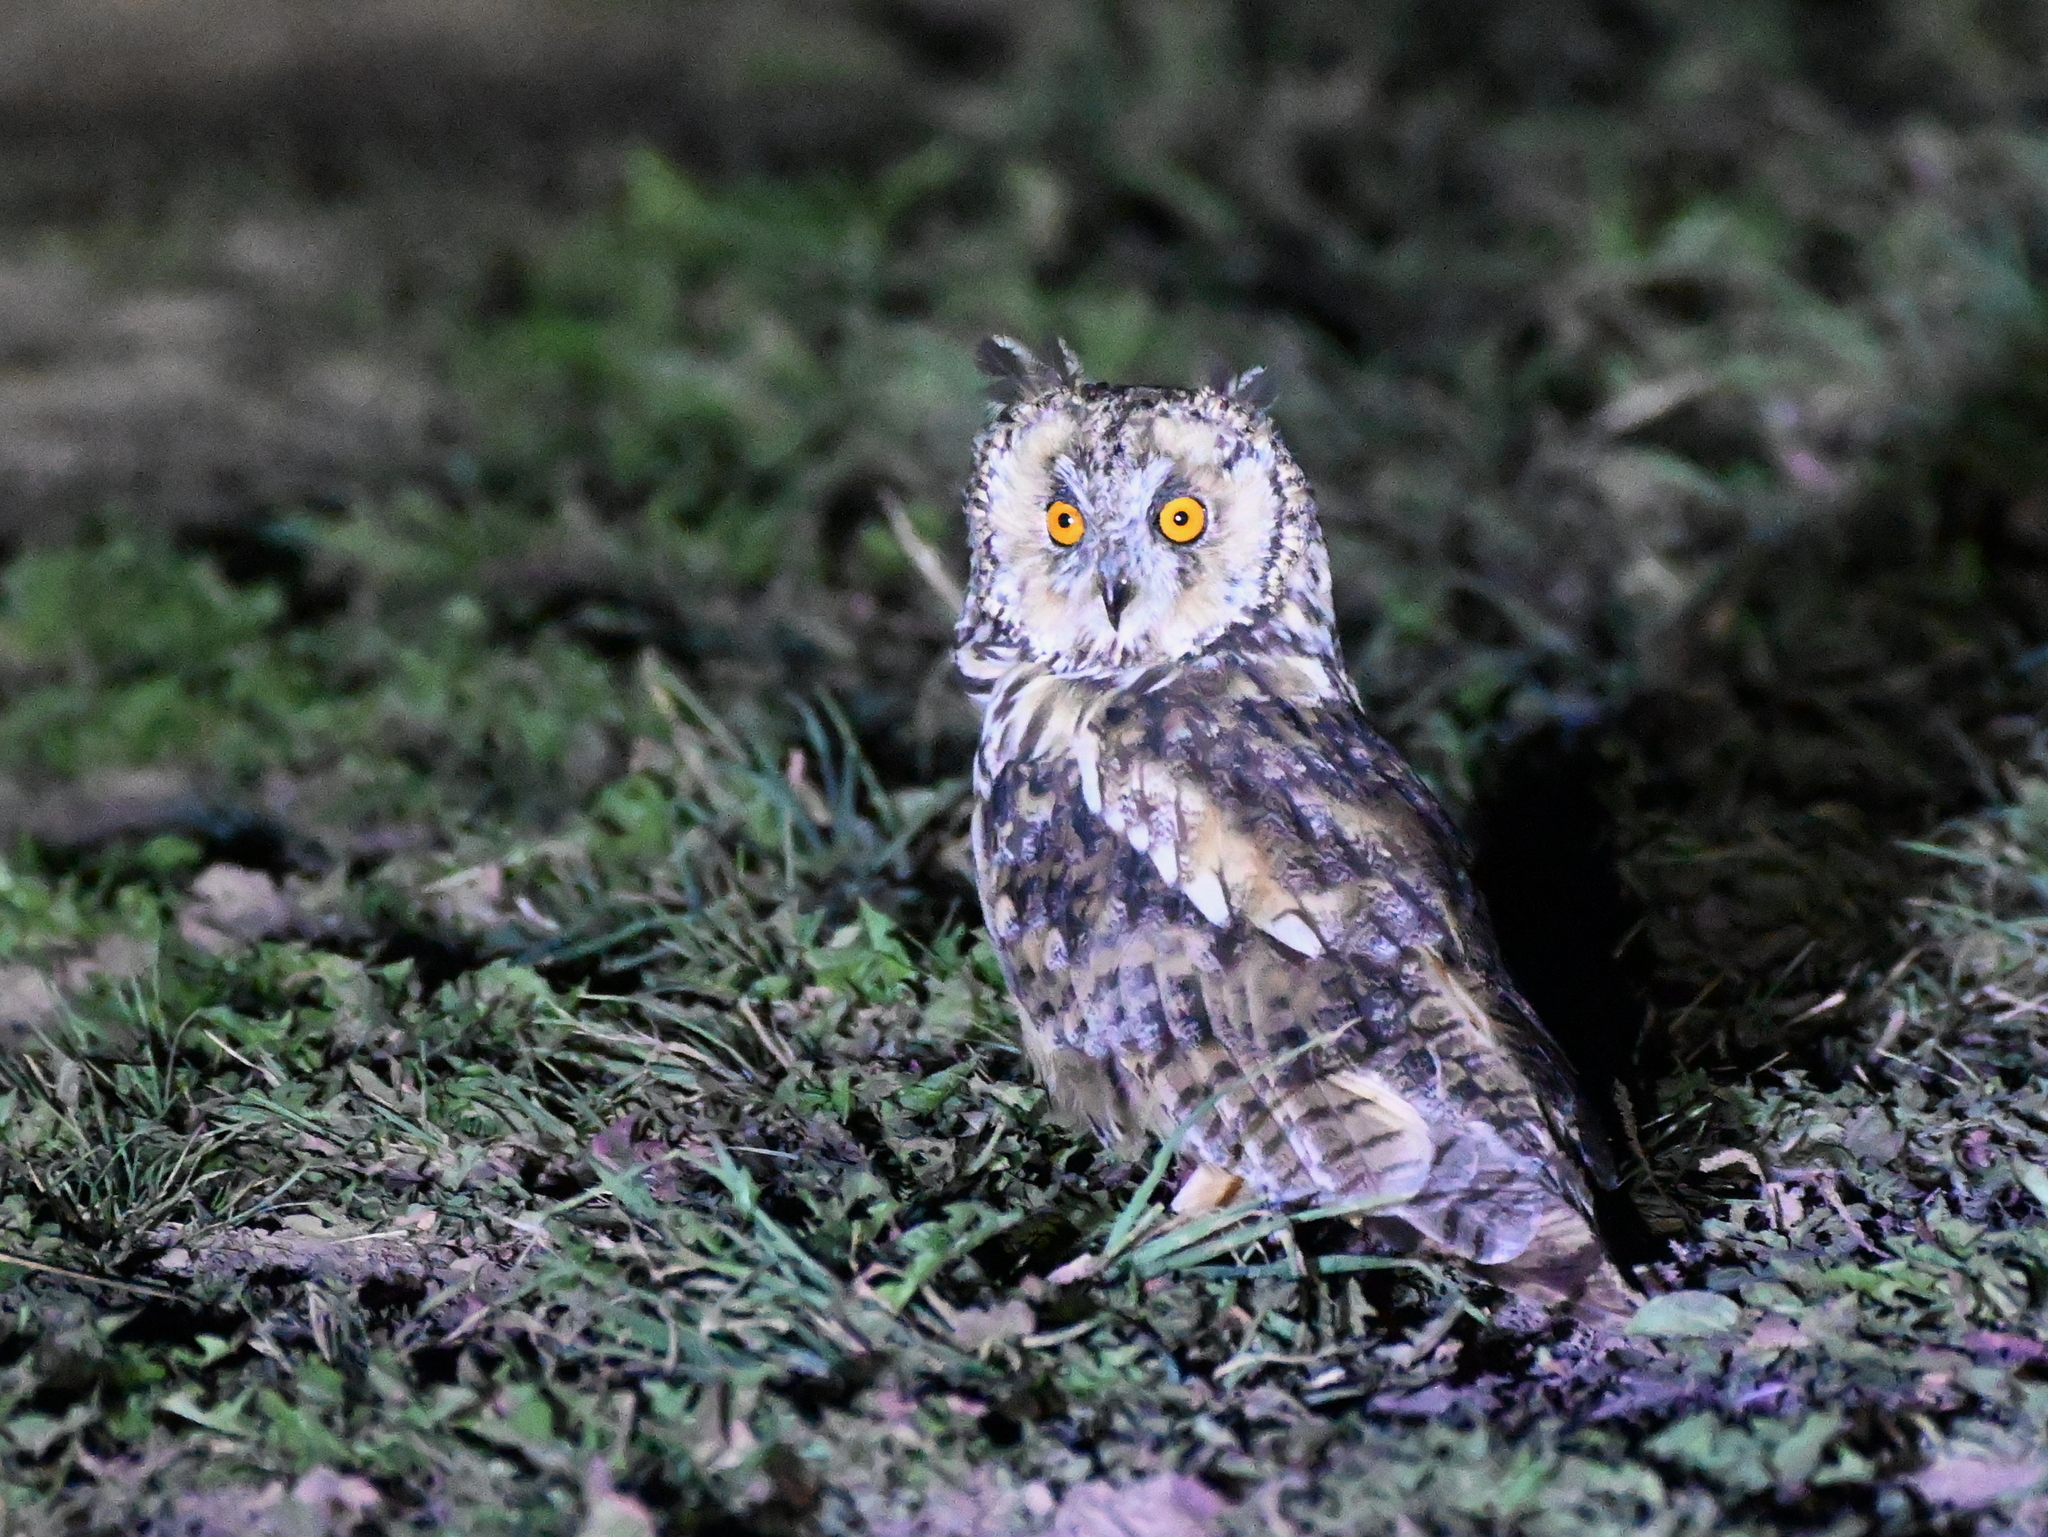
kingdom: Animalia
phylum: Chordata
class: Aves
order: Strigiformes
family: Strigidae
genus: Asio
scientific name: Asio otus
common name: Long-eared owl
